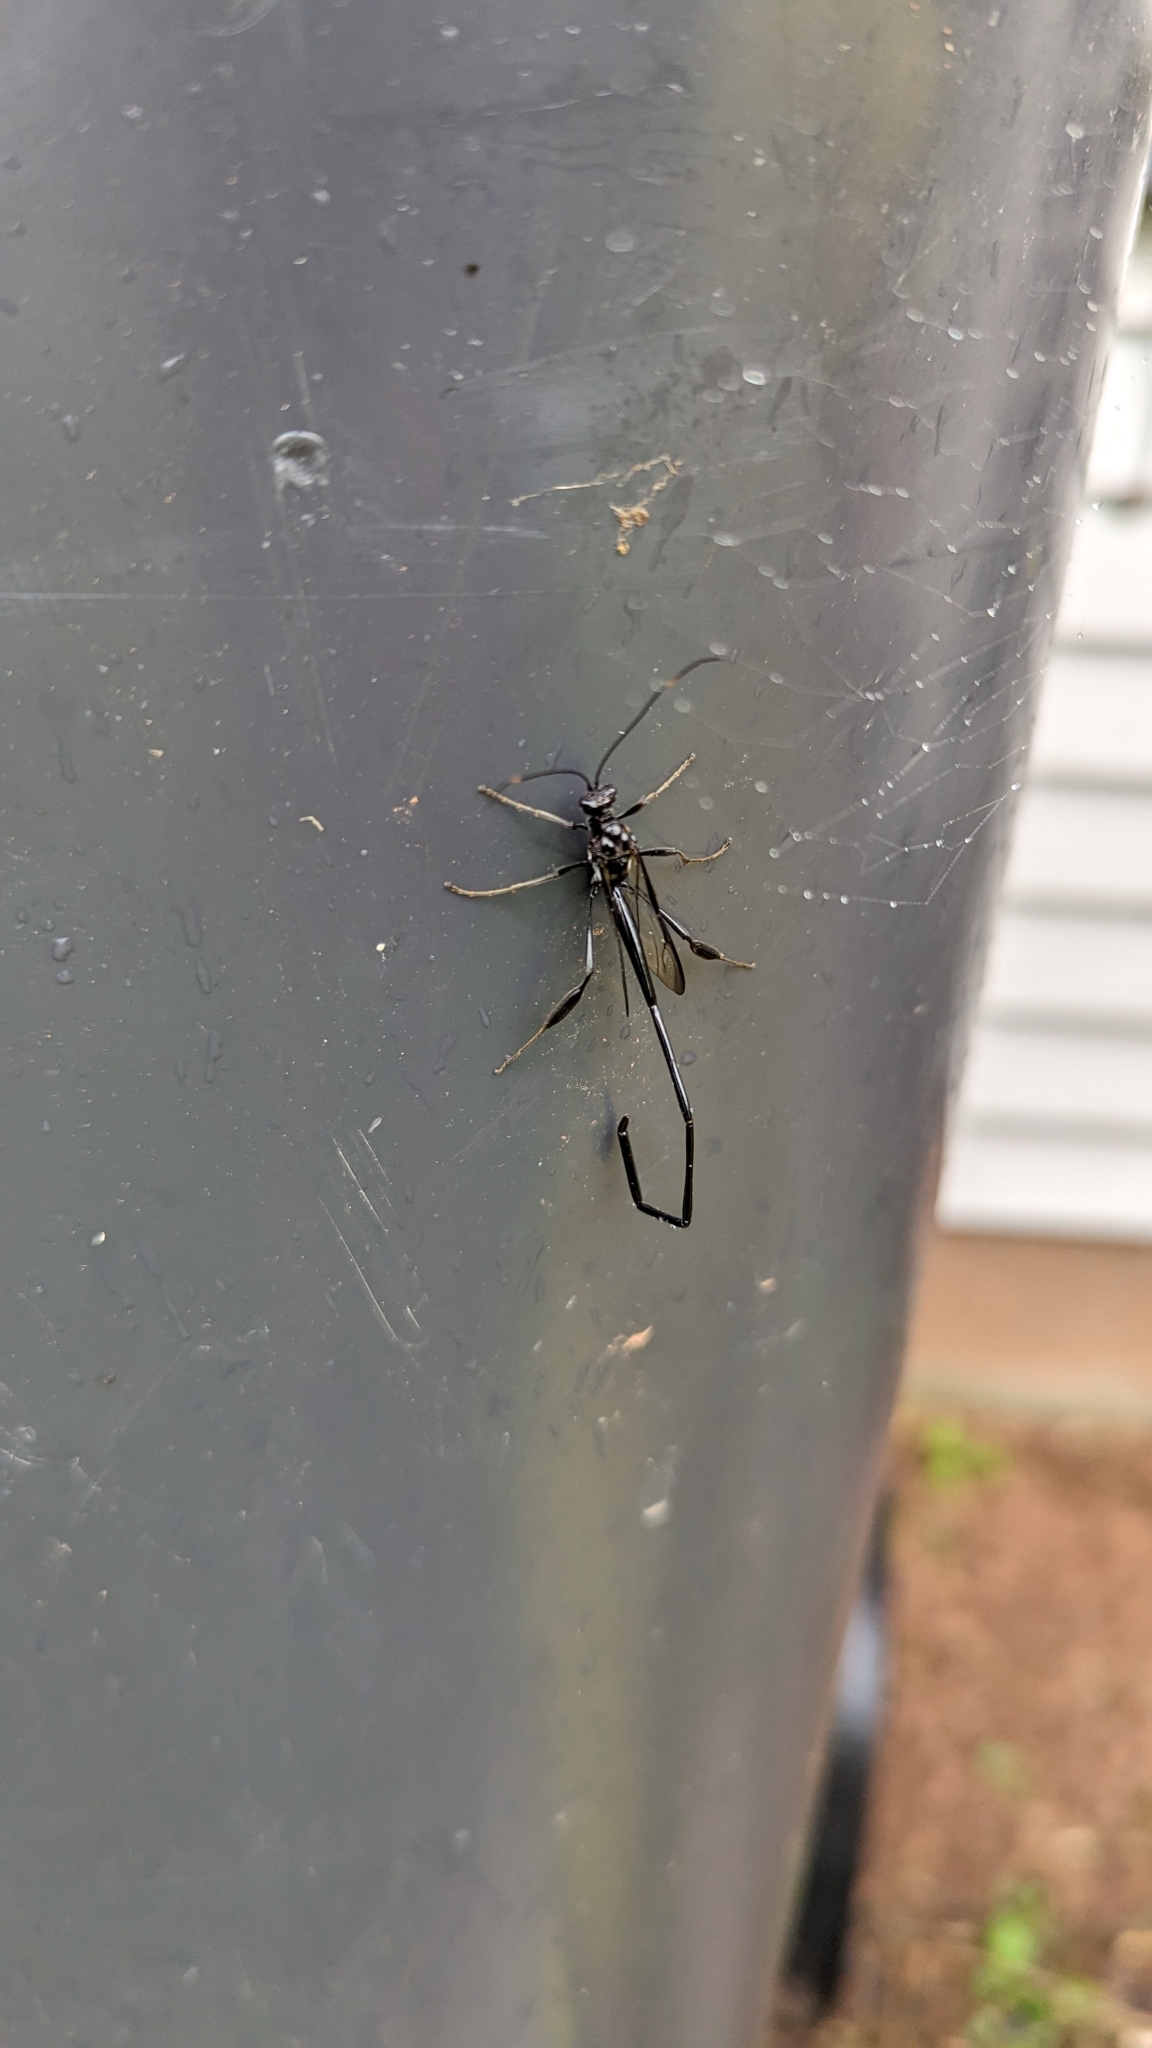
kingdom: Animalia
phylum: Arthropoda
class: Insecta
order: Hymenoptera
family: Pelecinidae
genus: Pelecinus
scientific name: Pelecinus polyturator
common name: American pelecinid wasp
